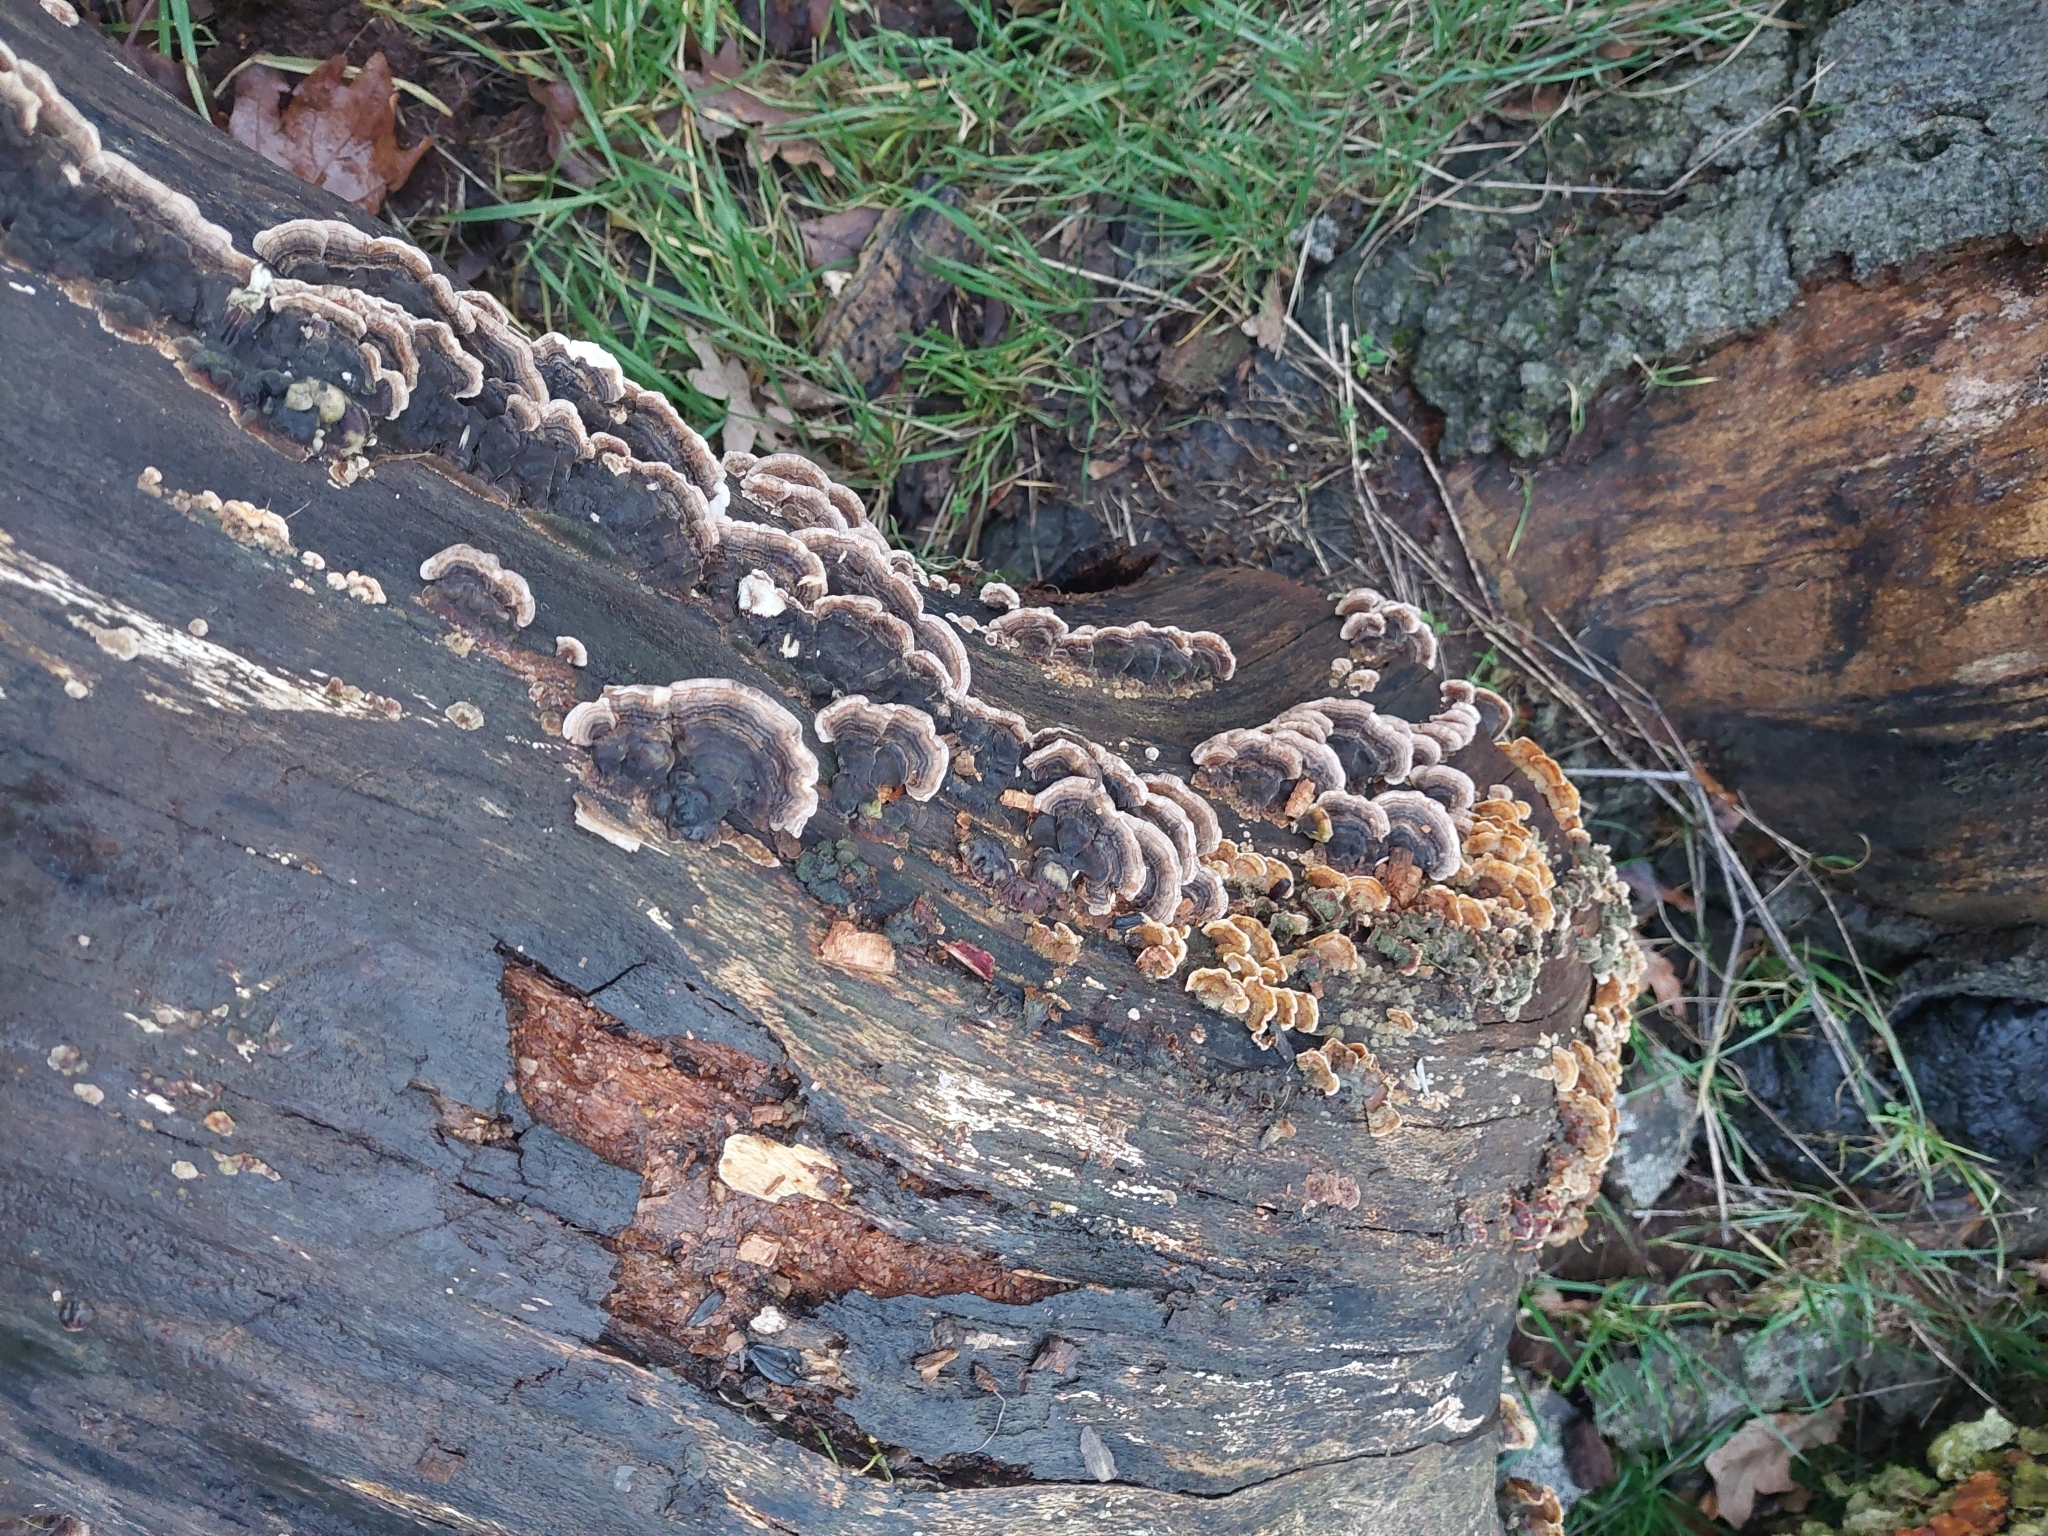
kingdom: Fungi
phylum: Basidiomycota
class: Agaricomycetes
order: Polyporales
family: Polyporaceae
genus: Trametes
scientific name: Trametes versicolor
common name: Turkeytail
